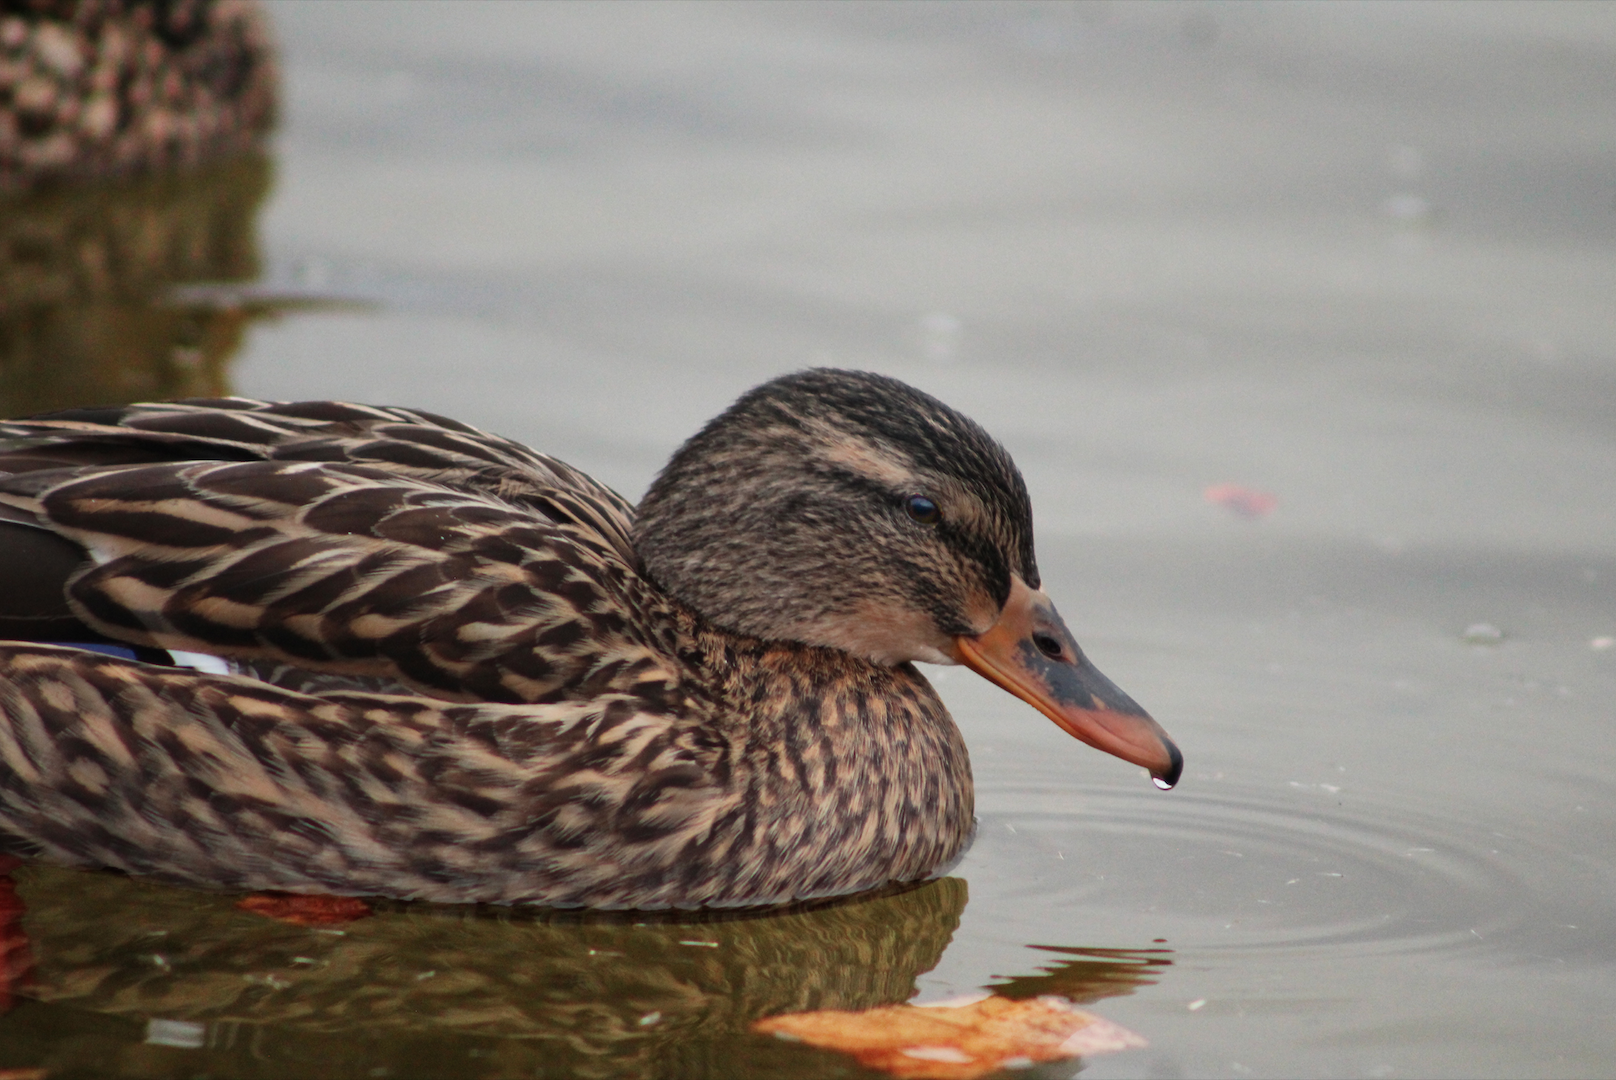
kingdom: Animalia
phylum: Chordata
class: Aves
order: Anseriformes
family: Anatidae
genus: Anas
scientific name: Anas platyrhynchos
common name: Mallard
